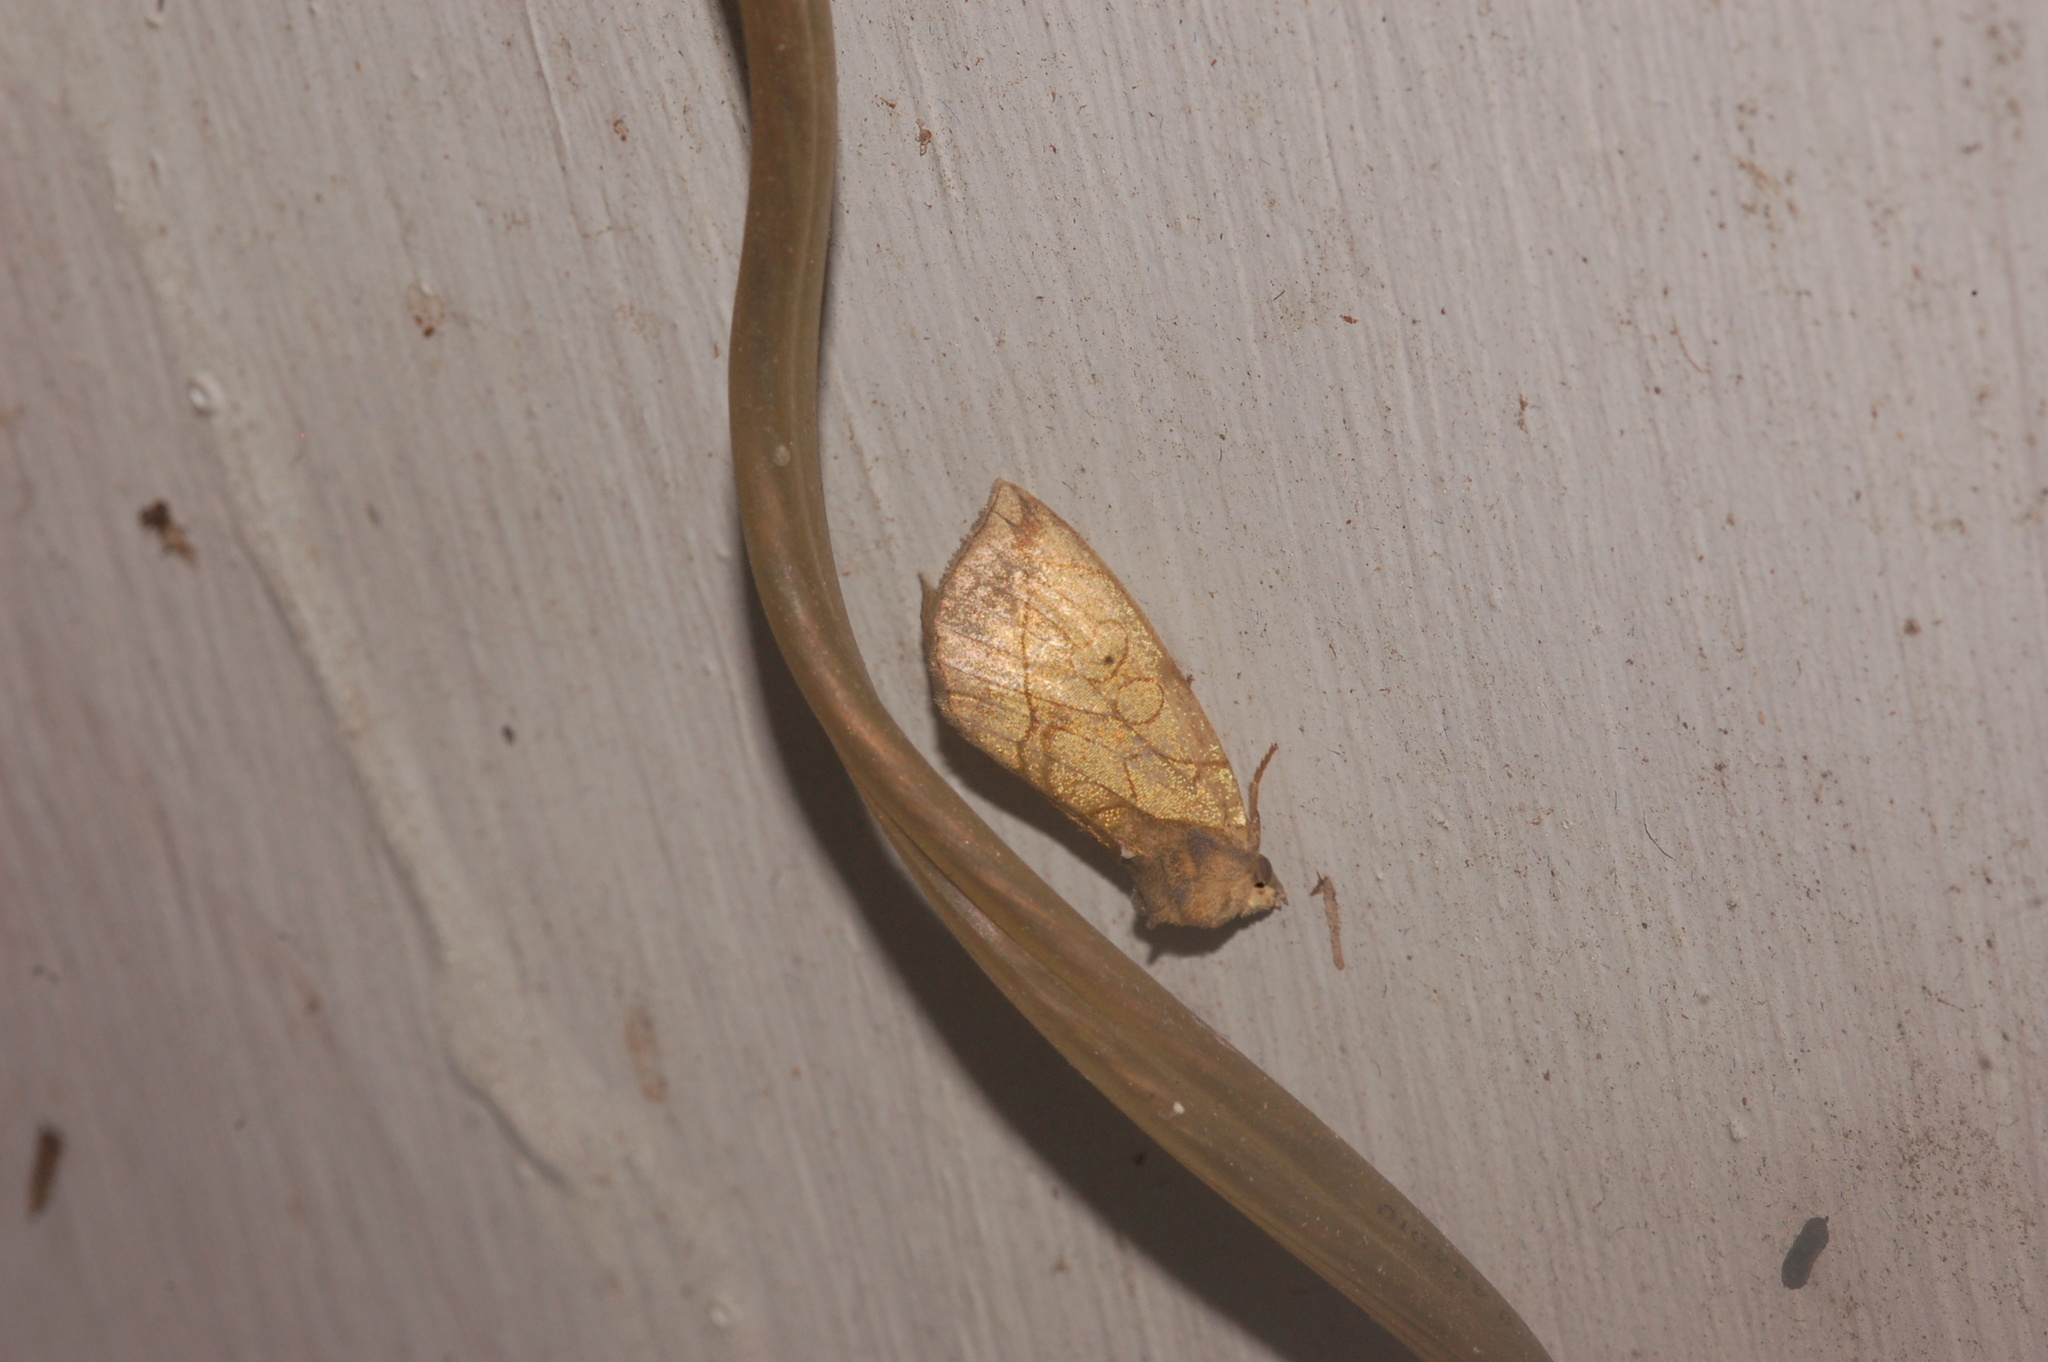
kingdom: Animalia
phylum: Arthropoda
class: Insecta
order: Lepidoptera
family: Noctuidae
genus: Basilodes
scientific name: Basilodes pepita
